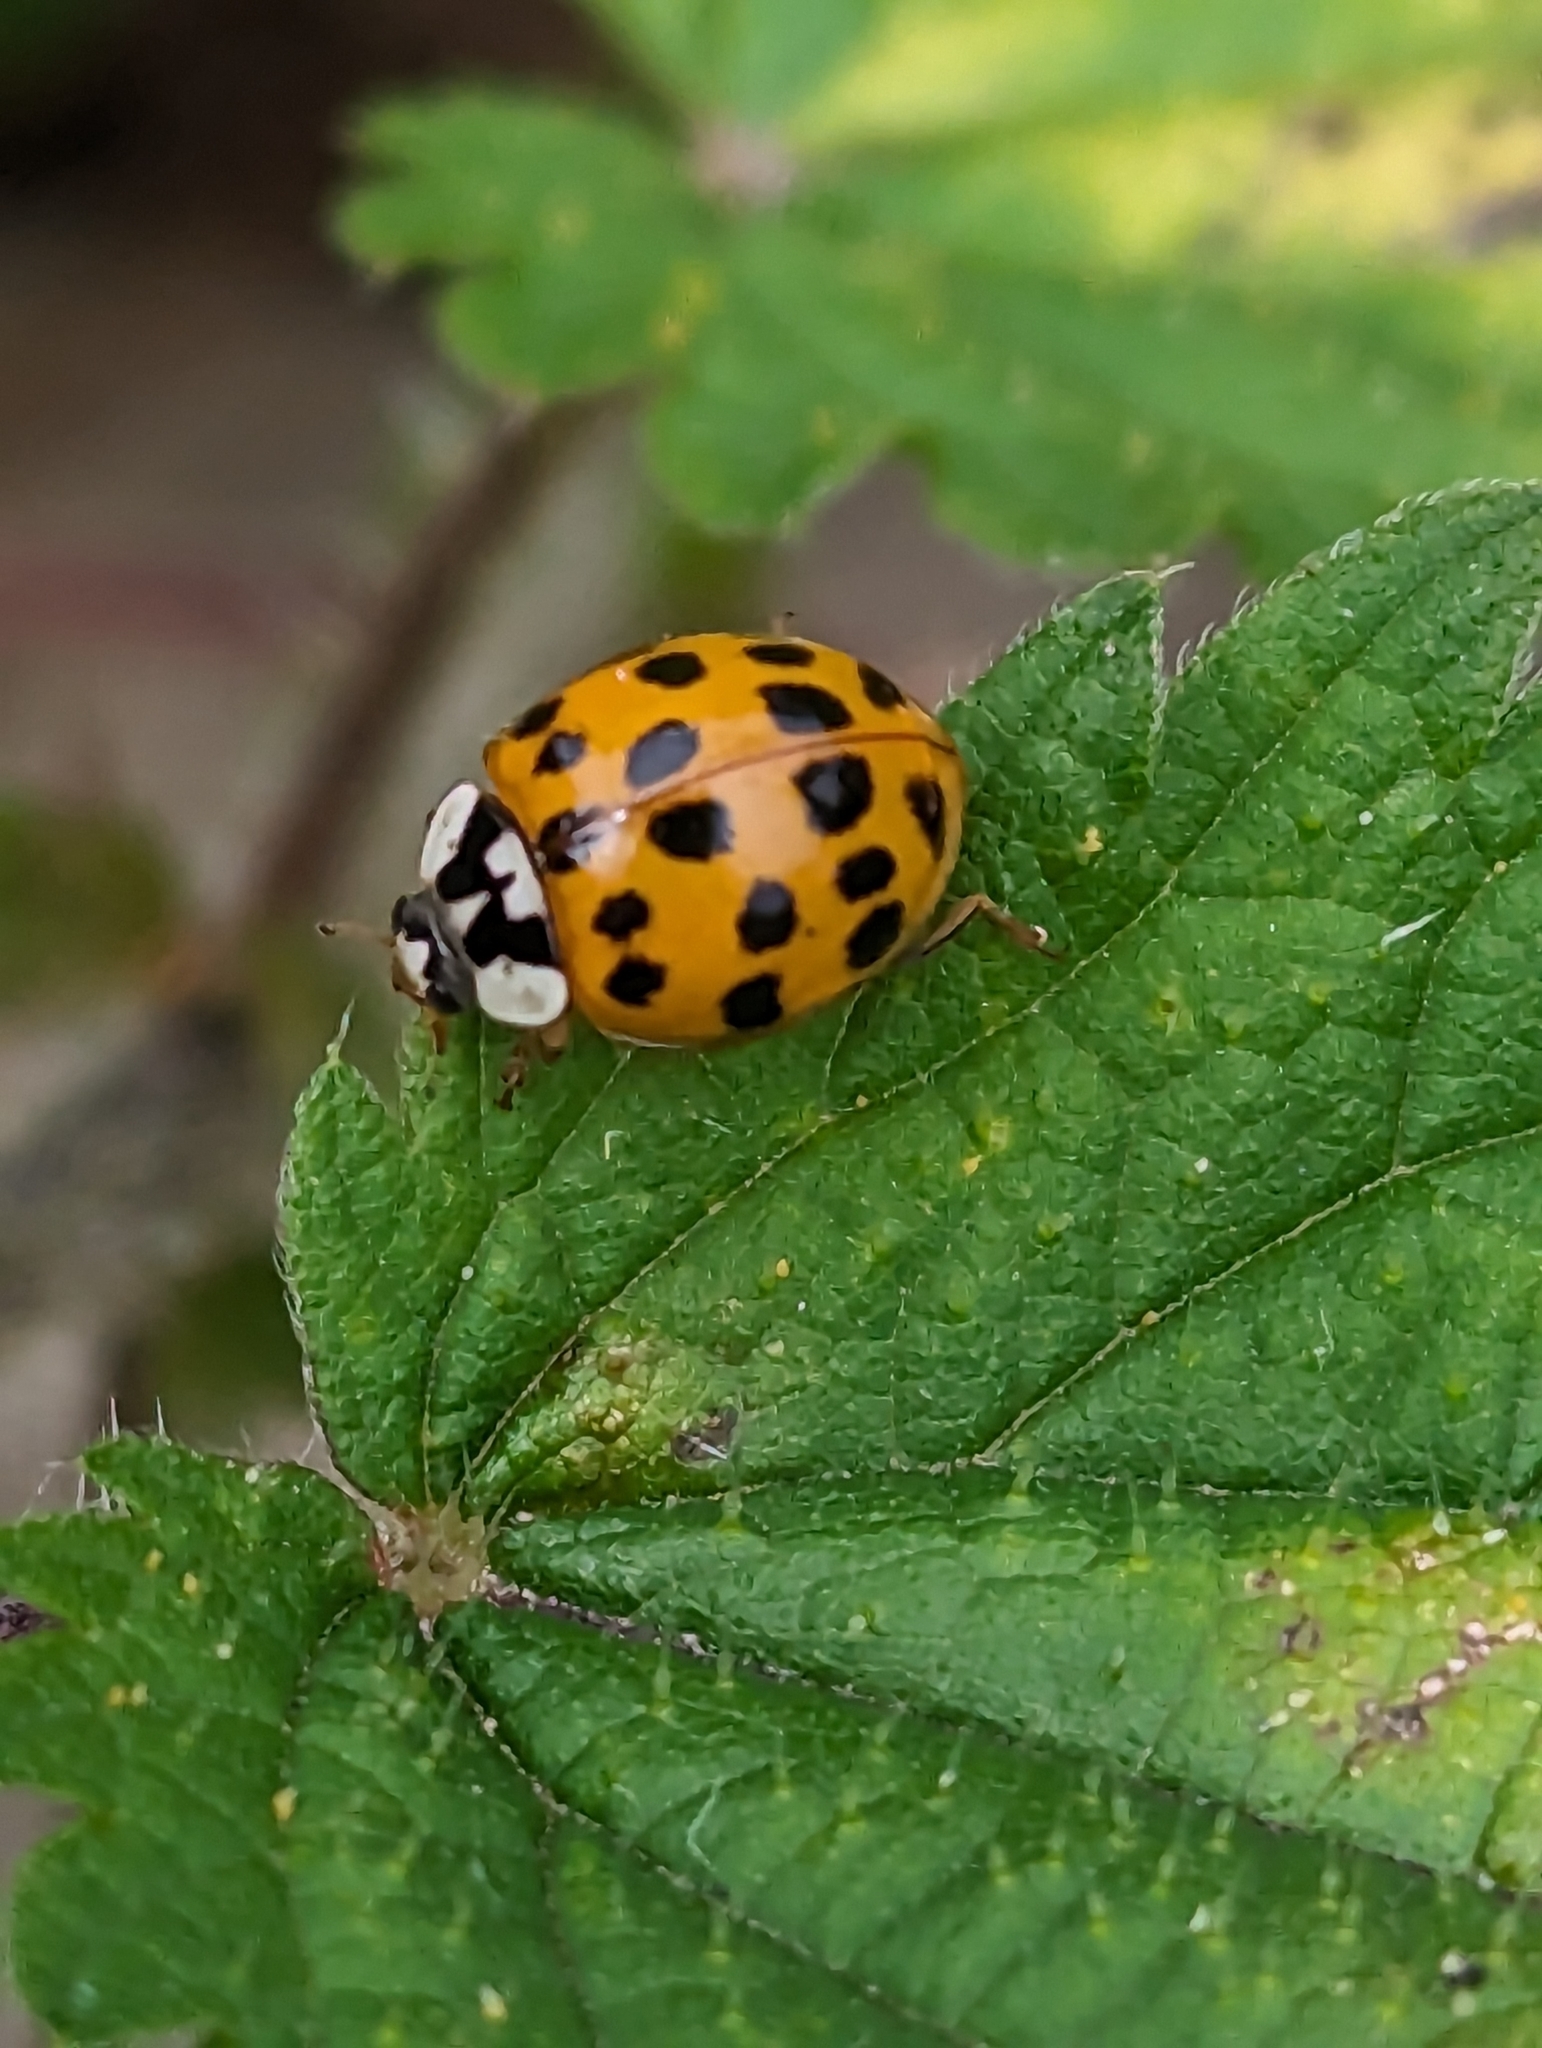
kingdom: Animalia
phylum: Arthropoda
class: Insecta
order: Coleoptera
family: Coccinellidae
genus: Harmonia
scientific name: Harmonia axyridis
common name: Harlequin ladybird
